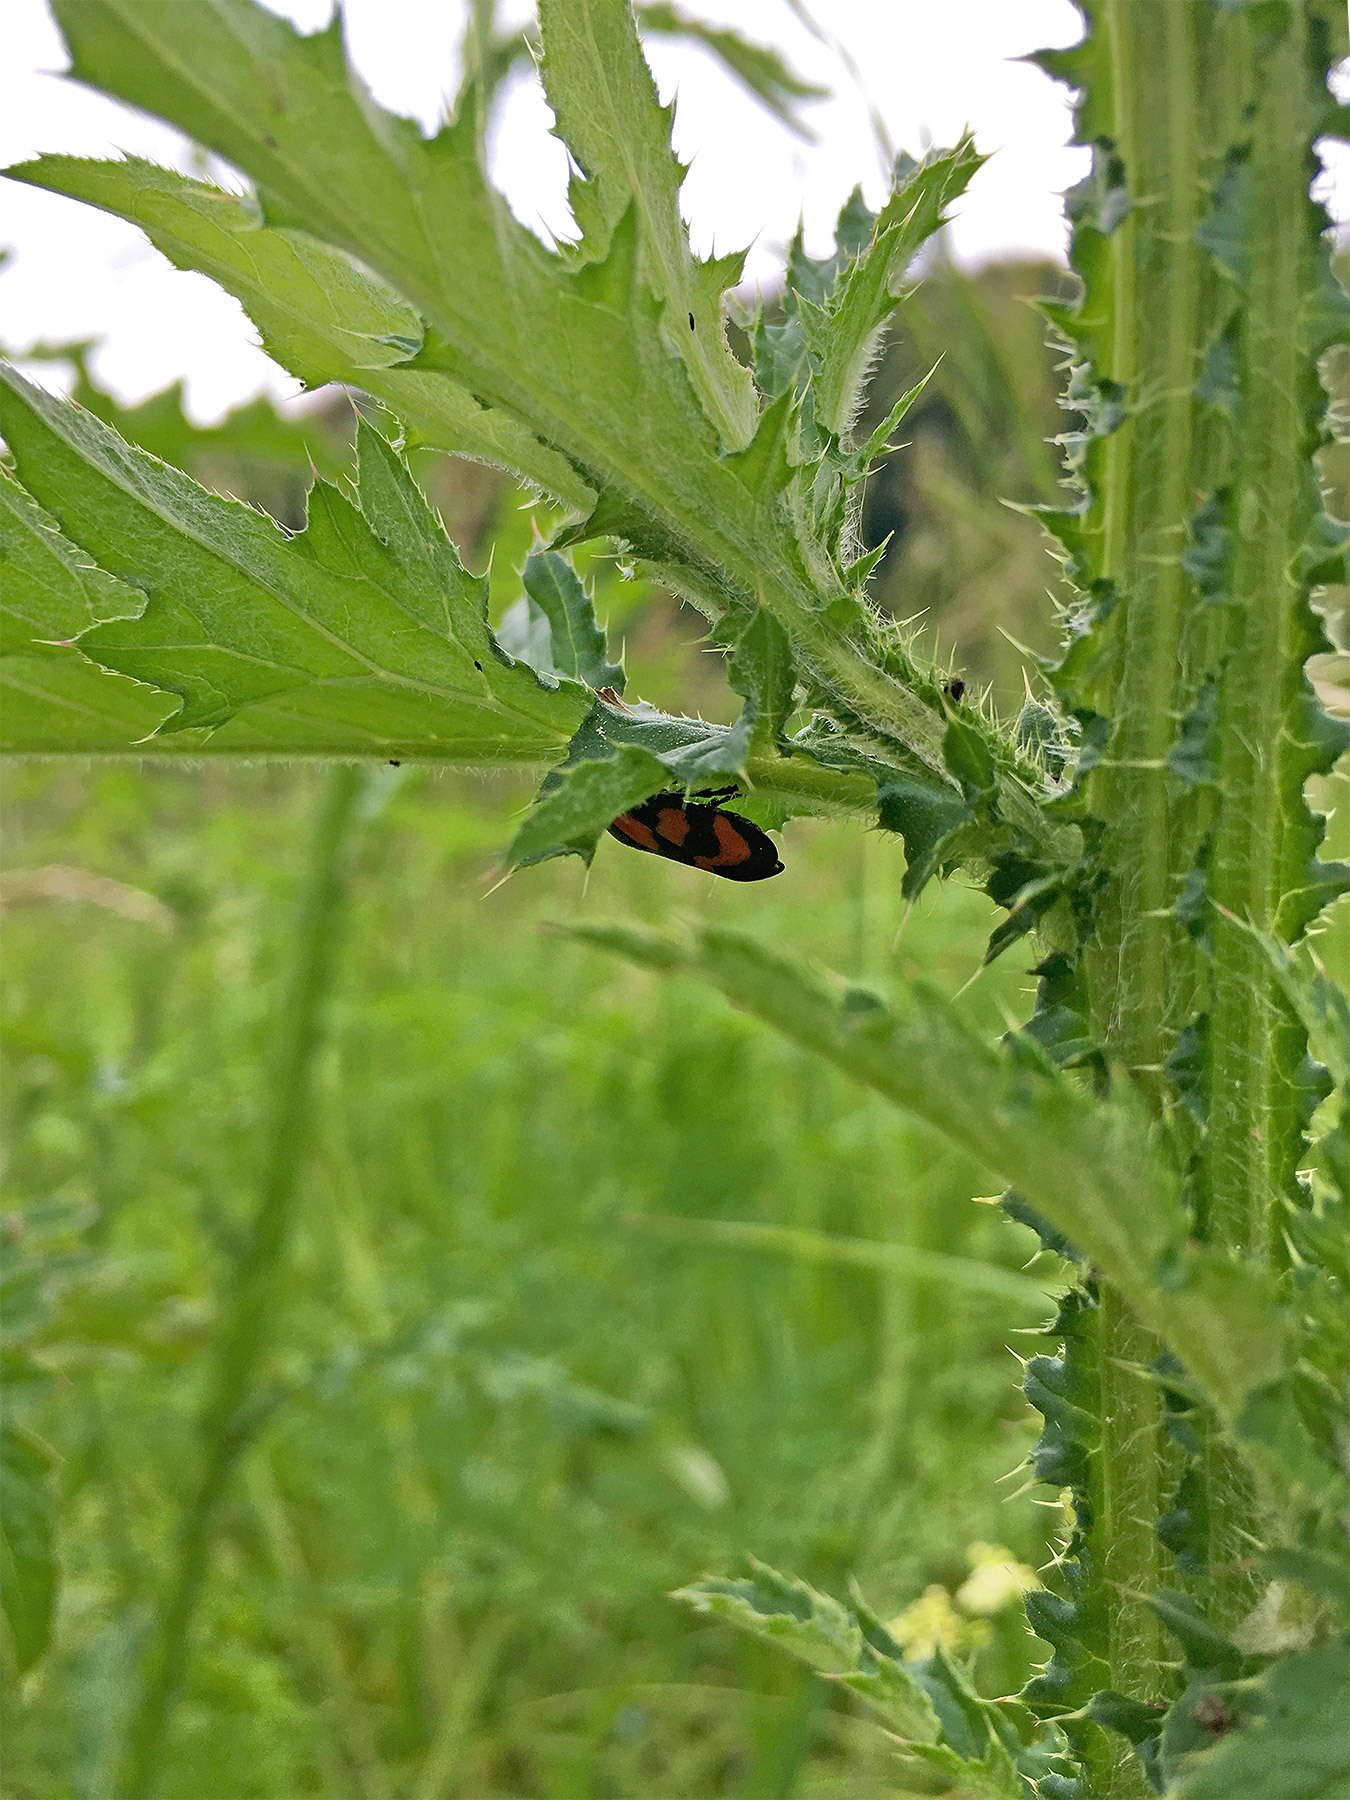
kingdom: Animalia
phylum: Arthropoda
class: Insecta
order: Hemiptera
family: Cercopidae
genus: Cercopis
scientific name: Cercopis vulnerata
